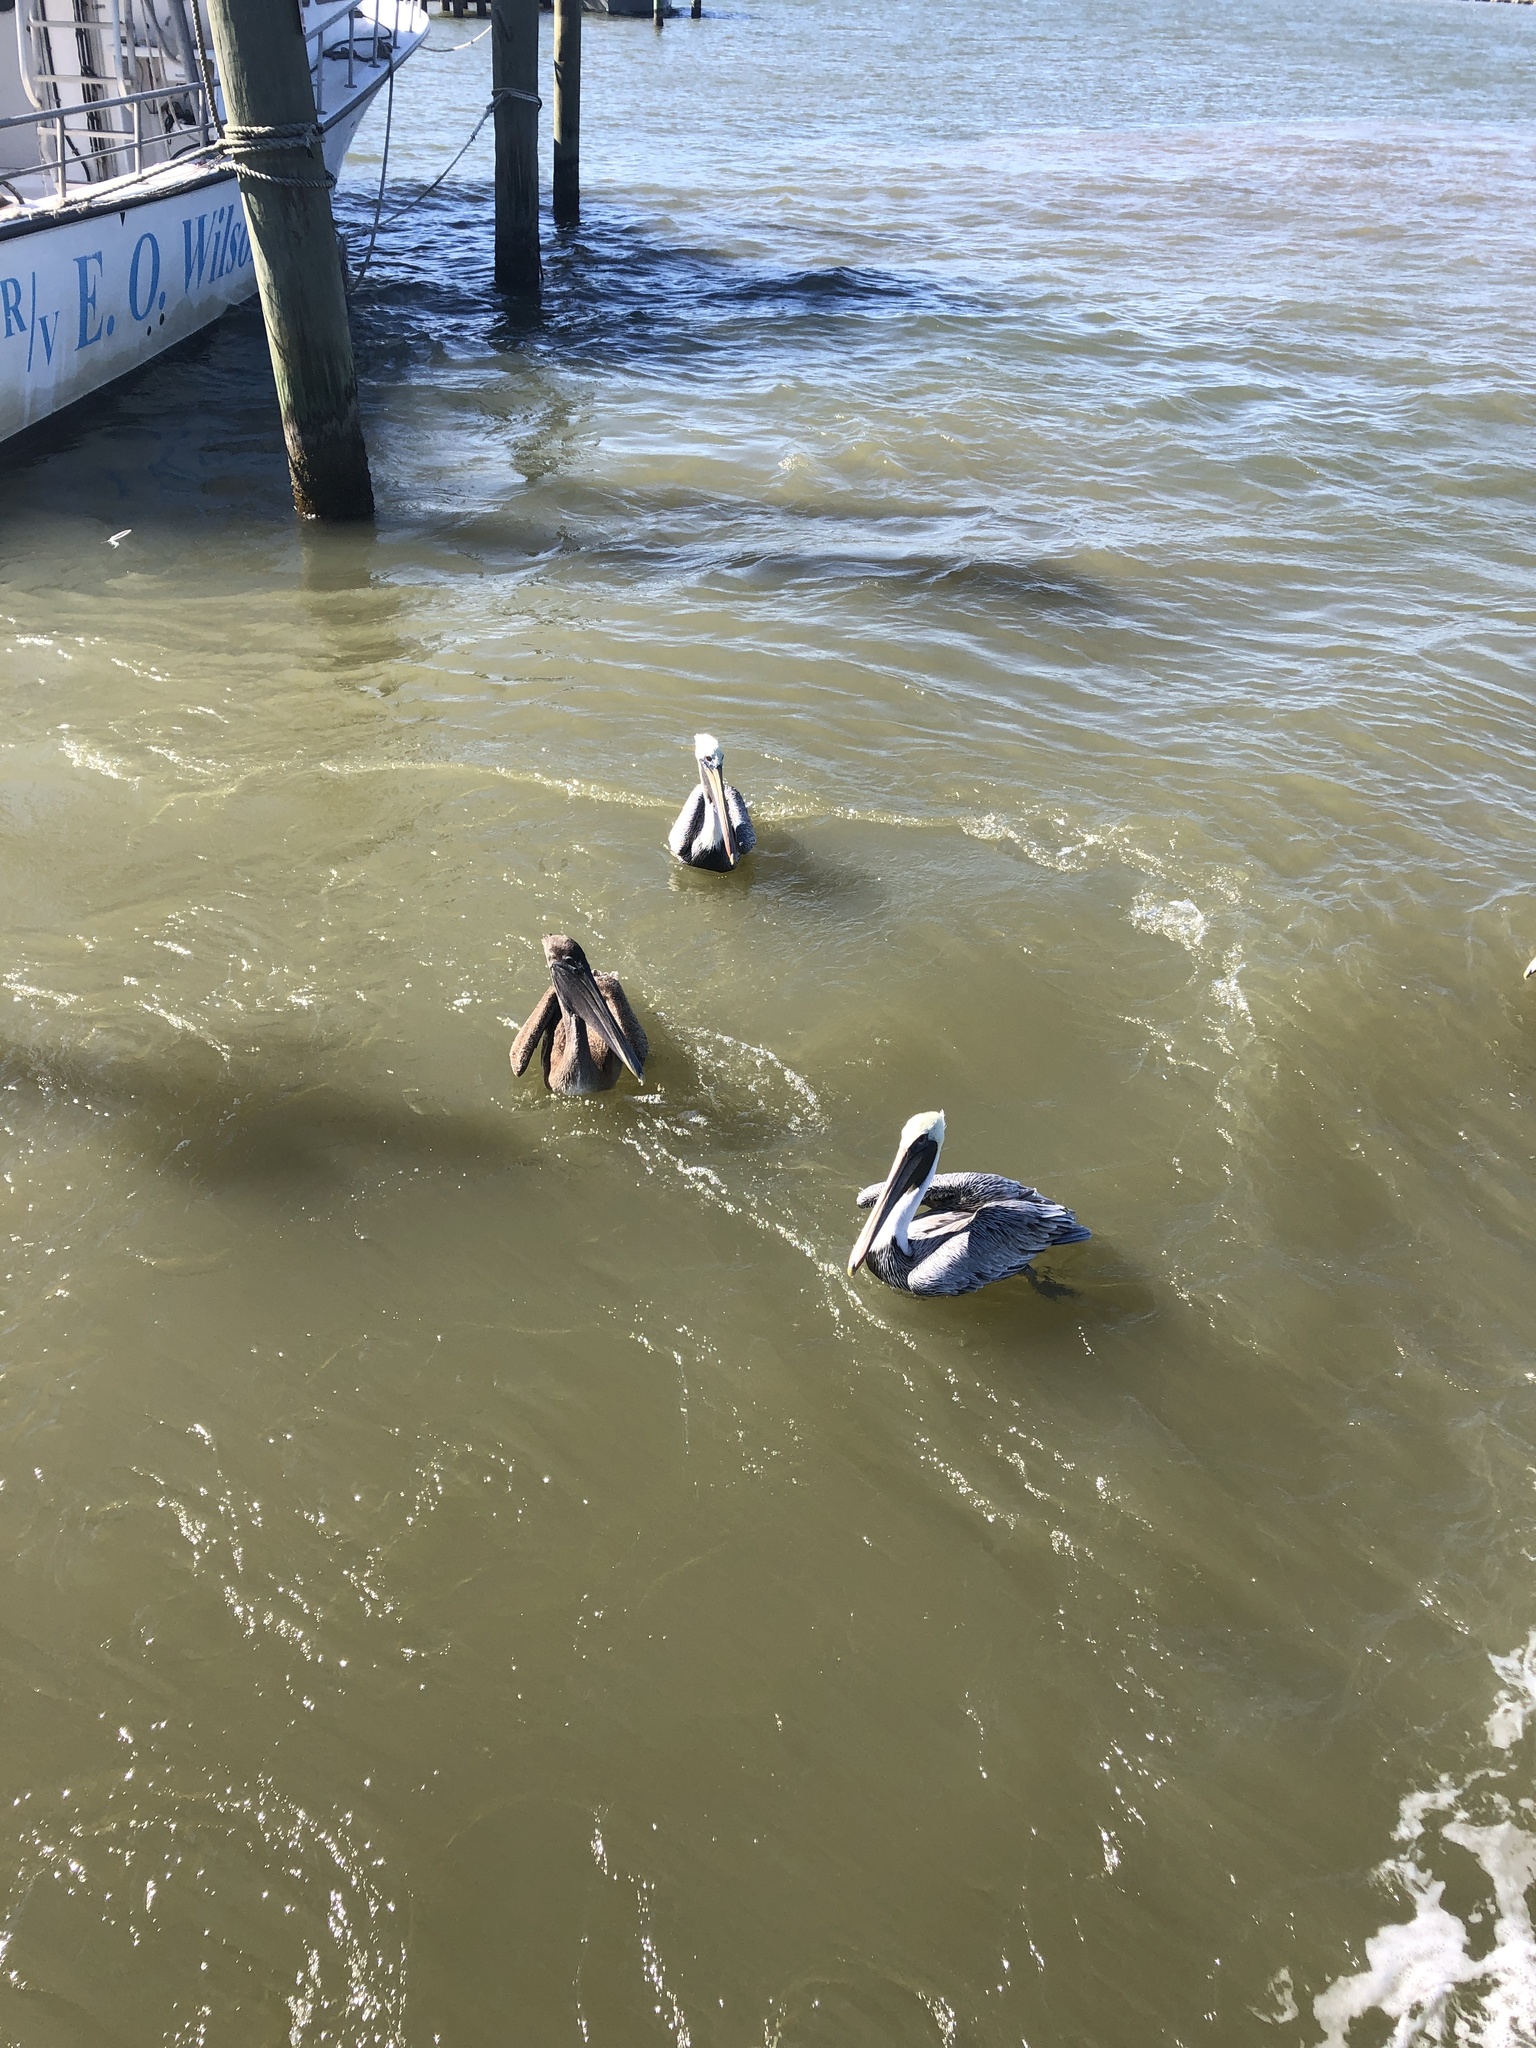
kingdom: Animalia
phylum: Chordata
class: Aves
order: Pelecaniformes
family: Pelecanidae
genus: Pelecanus
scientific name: Pelecanus occidentalis
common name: Brown pelican
